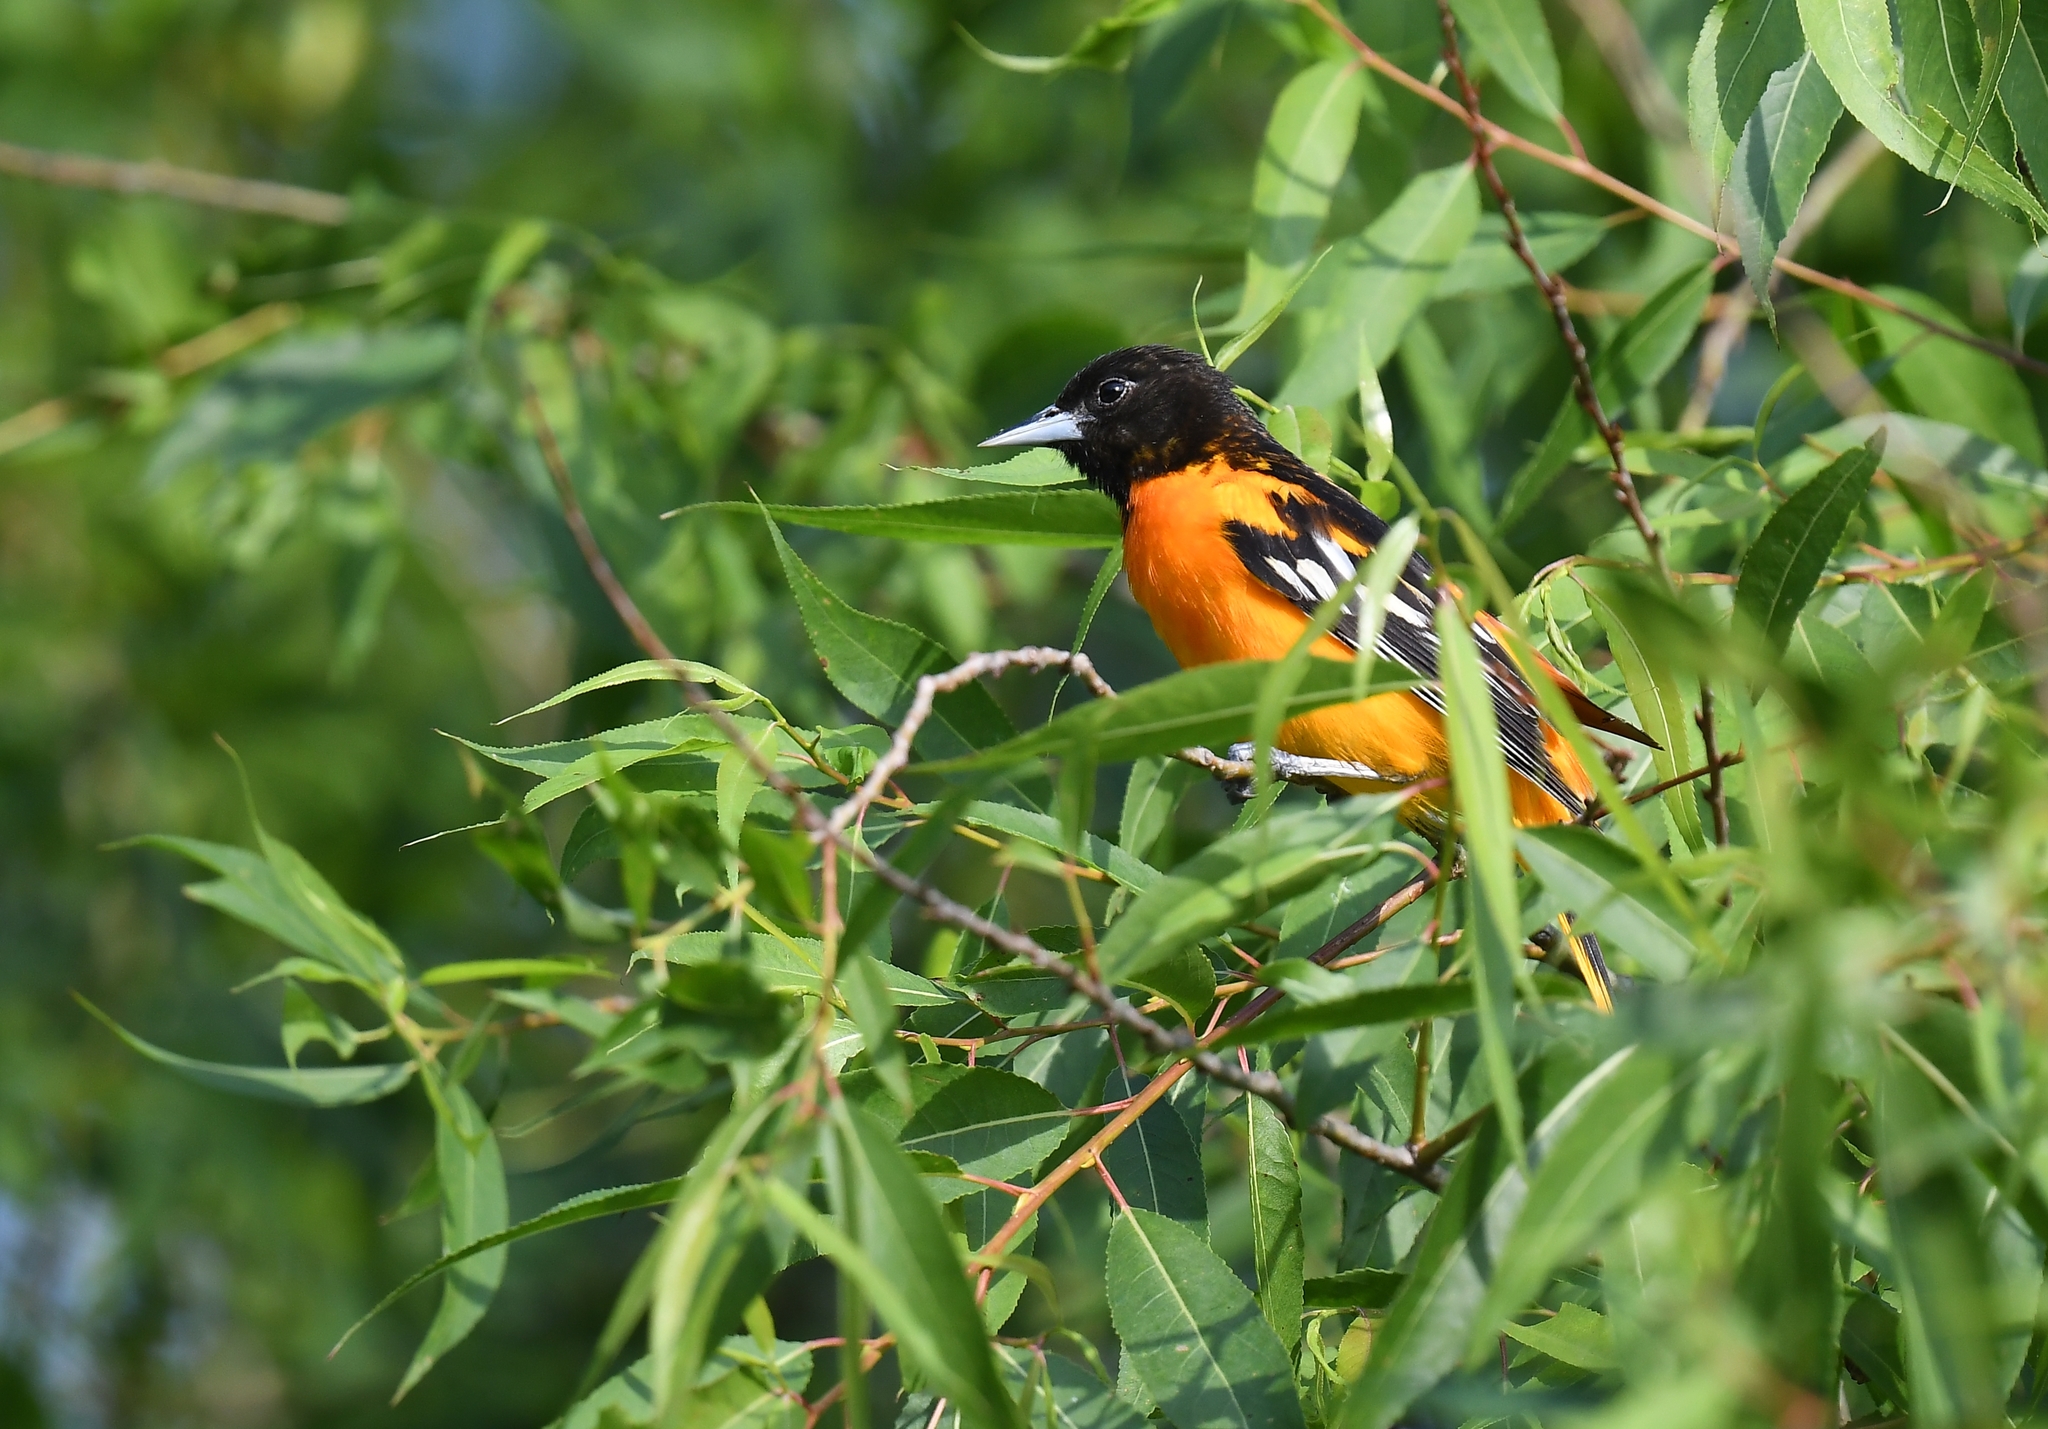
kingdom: Animalia
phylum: Chordata
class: Aves
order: Passeriformes
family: Icteridae
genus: Icterus
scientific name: Icterus galbula
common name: Baltimore oriole
